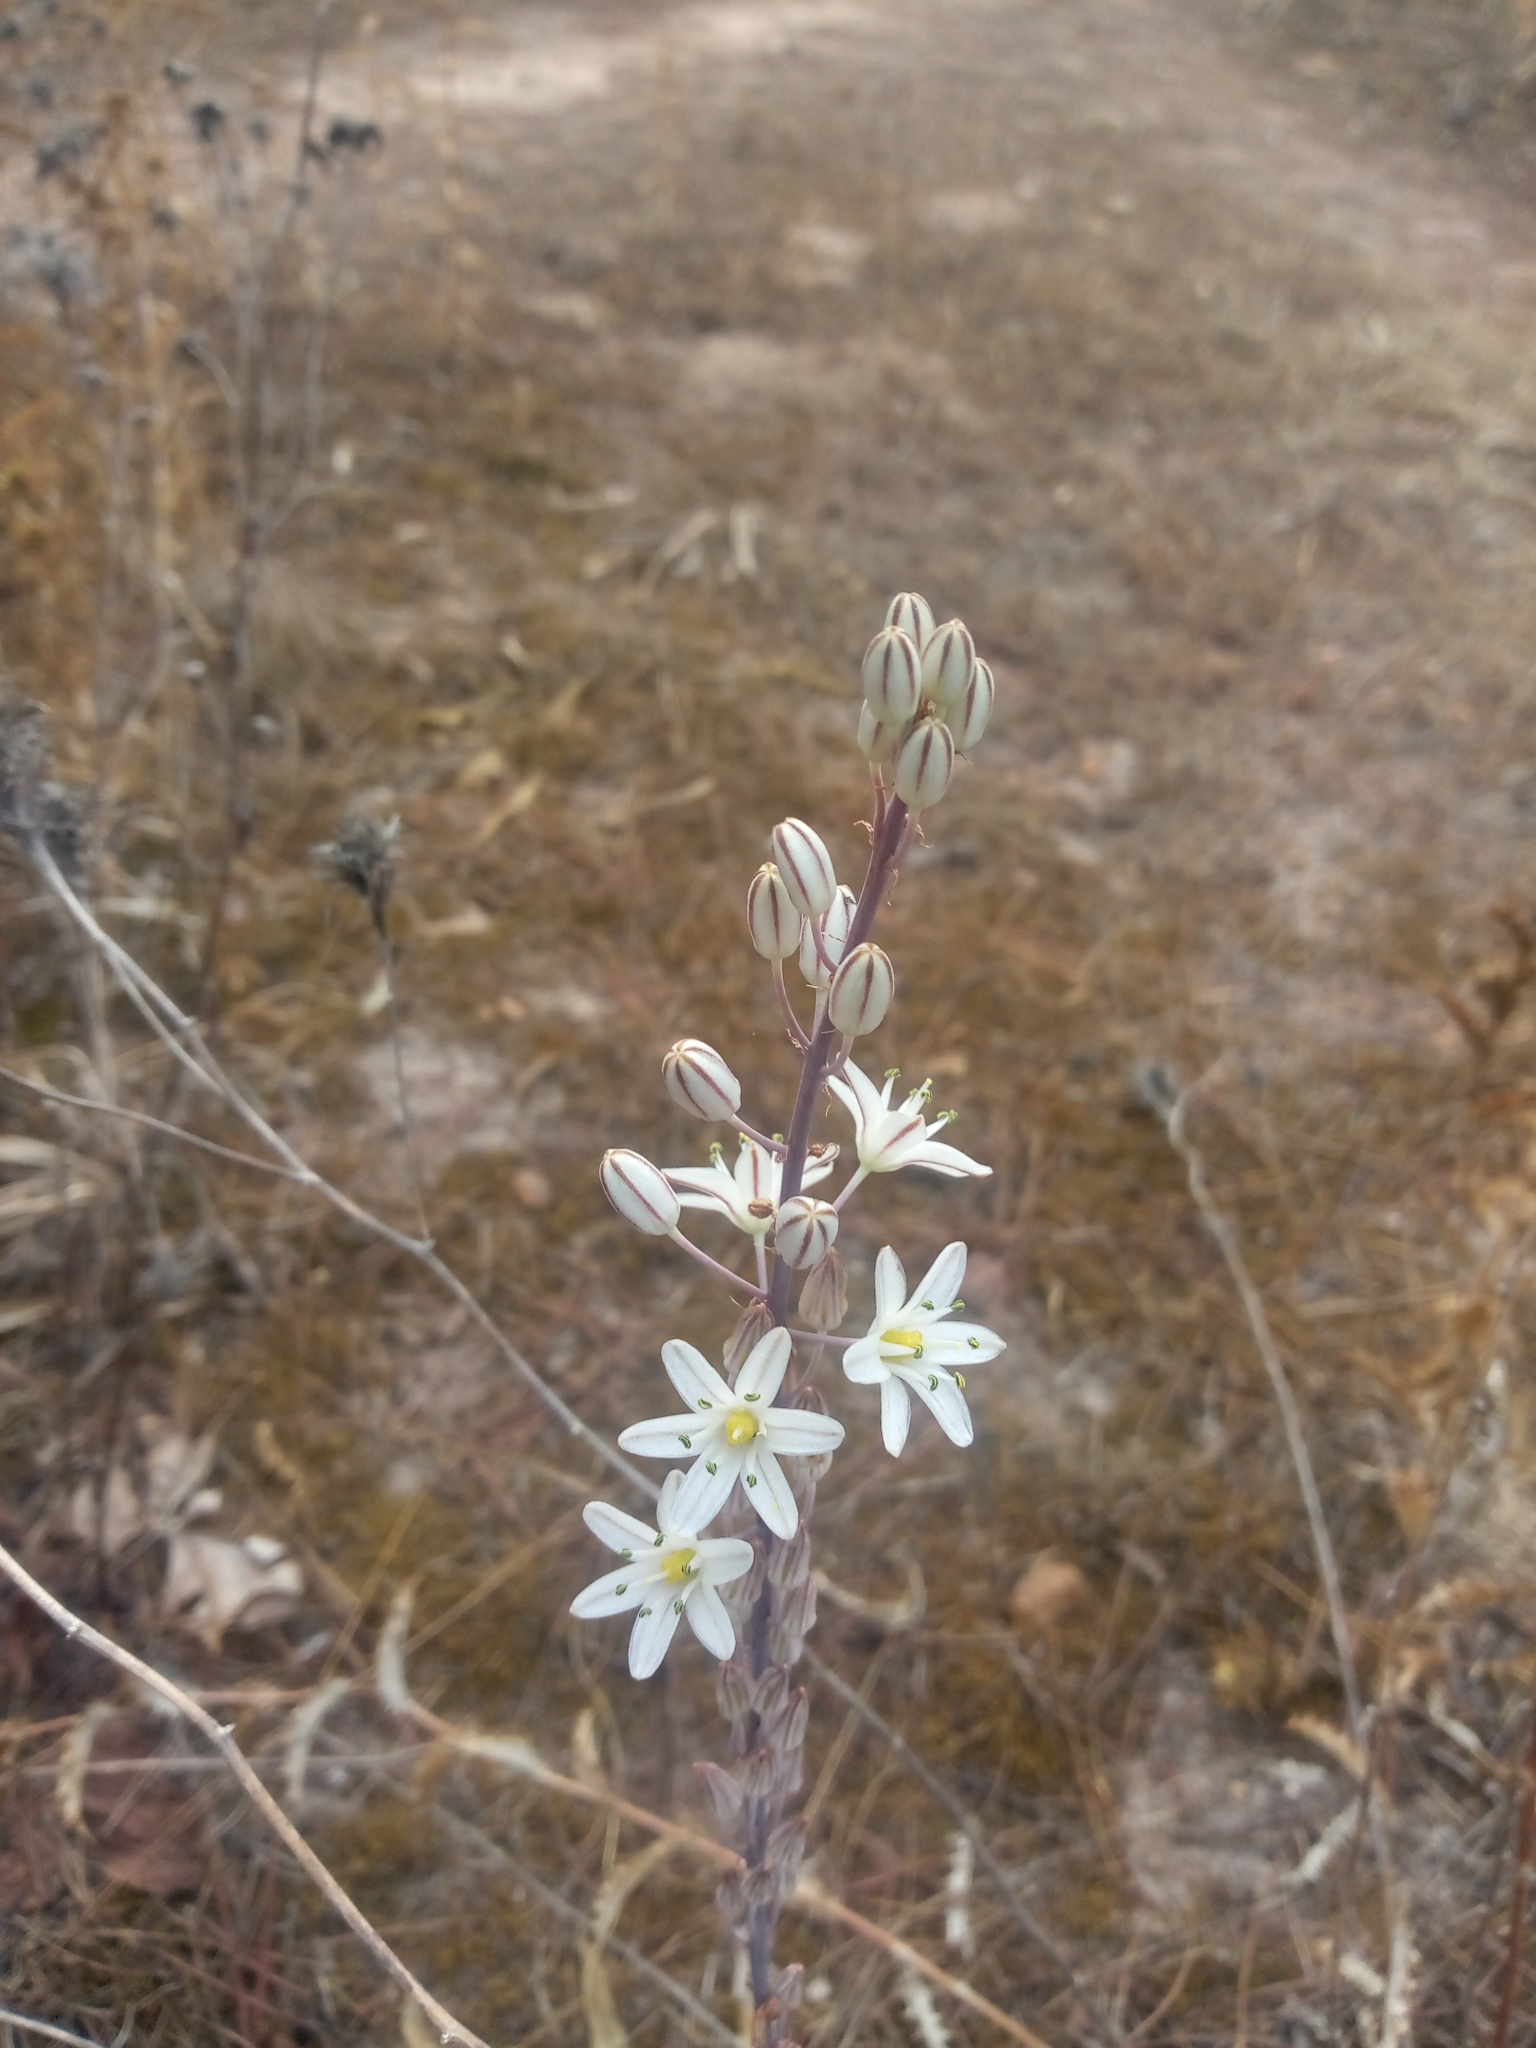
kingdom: Plantae
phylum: Tracheophyta
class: Liliopsida
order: Asparagales
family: Asparagaceae
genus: Drimia
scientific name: Drimia maritima
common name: Maritime squill
